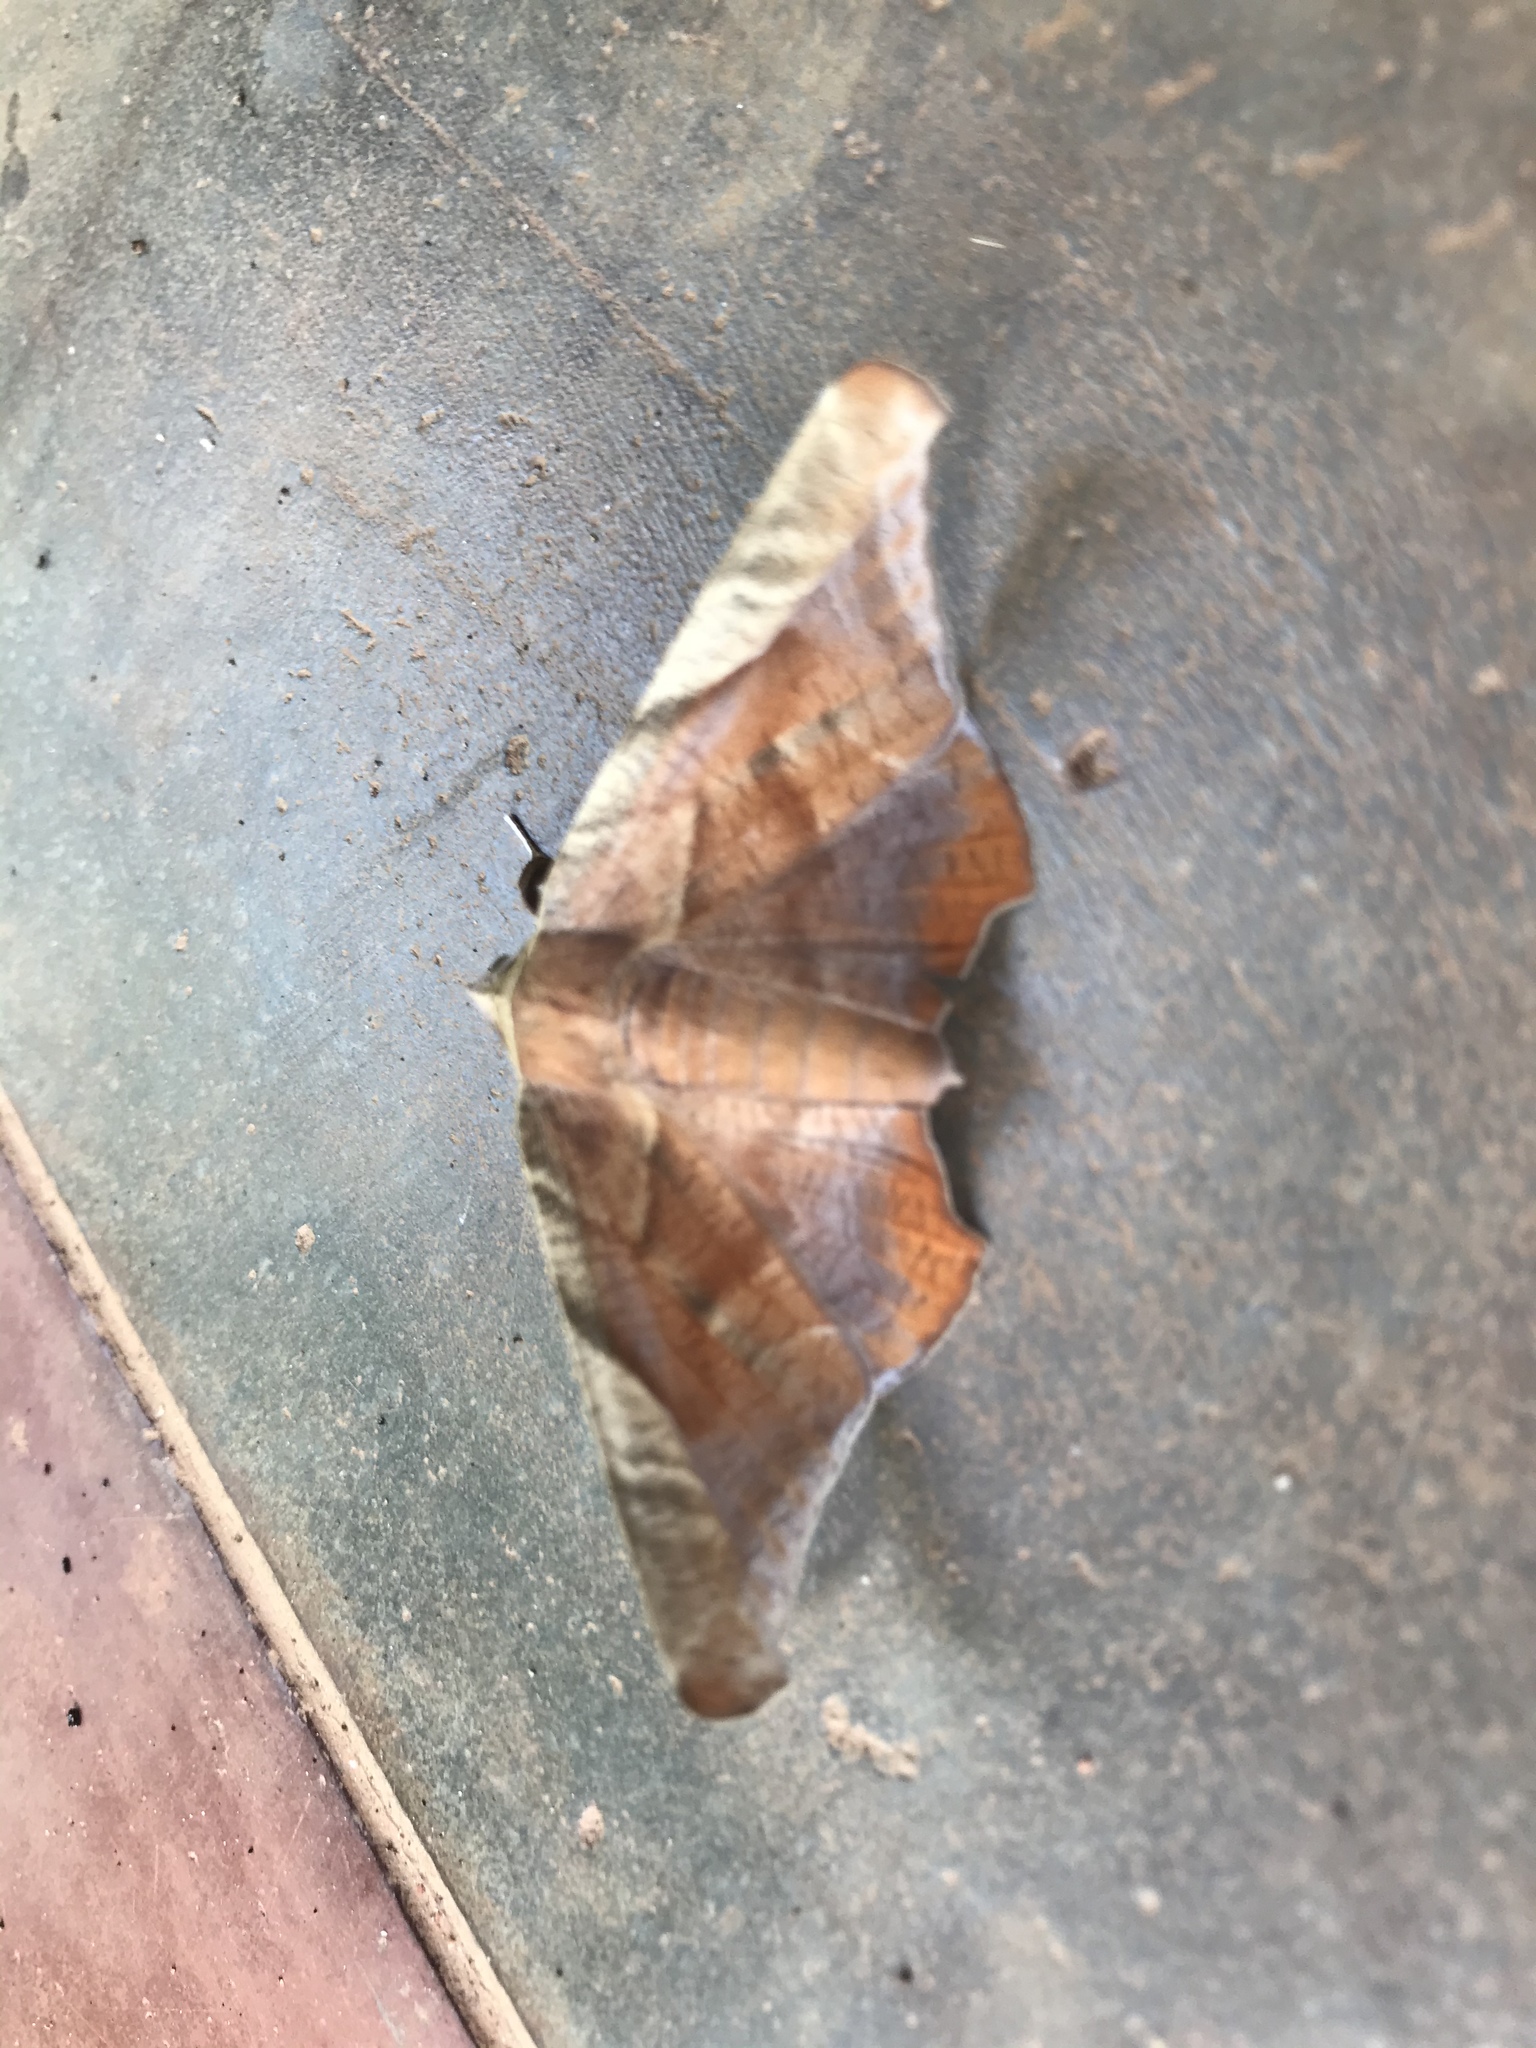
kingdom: Animalia
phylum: Arthropoda
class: Insecta
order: Lepidoptera
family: Erebidae
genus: Episparis
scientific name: Episparis tortuosalis
